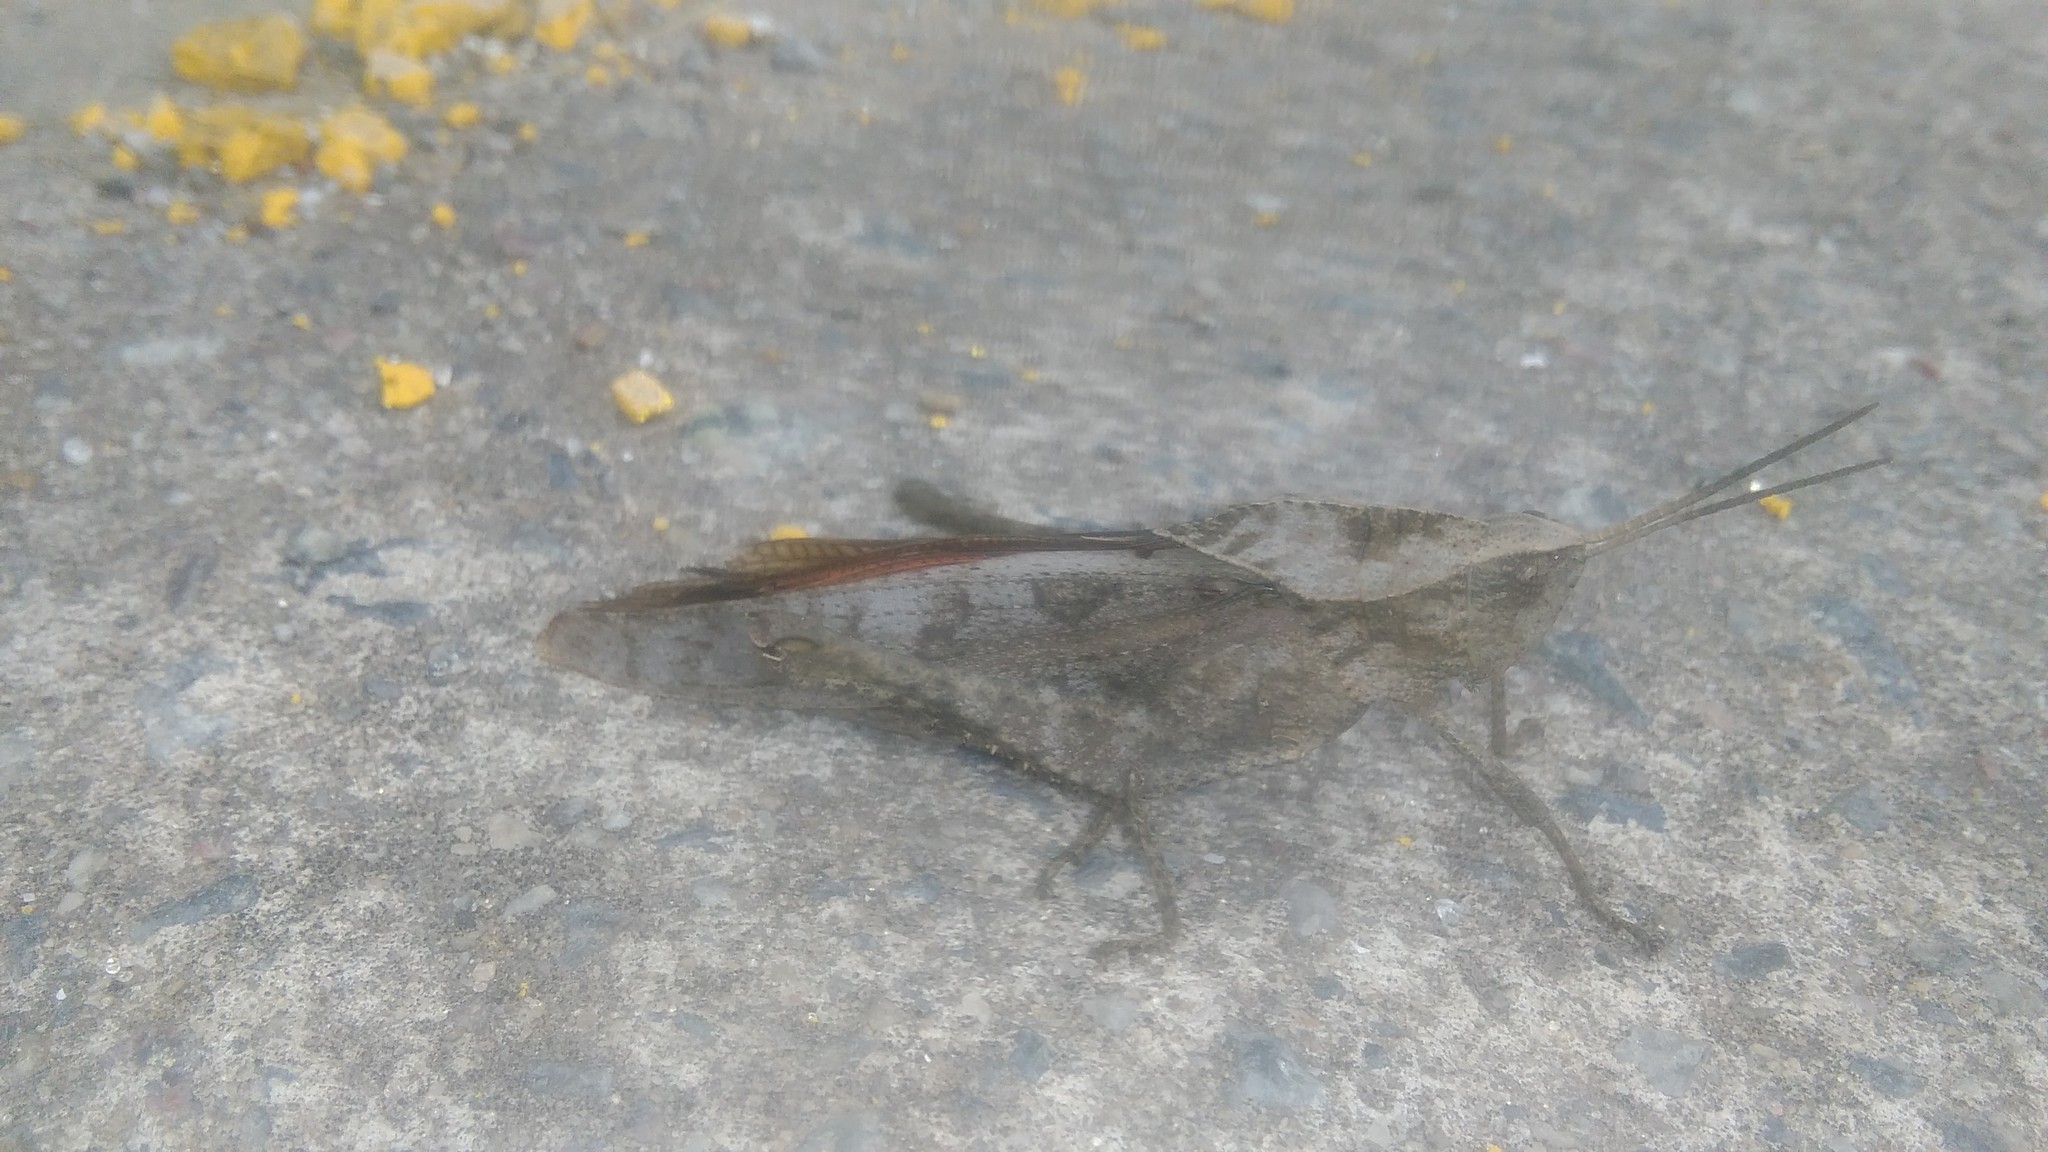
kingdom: Animalia
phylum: Arthropoda
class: Insecta
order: Orthoptera
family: Romaleidae
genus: Xyleus
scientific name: Xyleus discoideus
